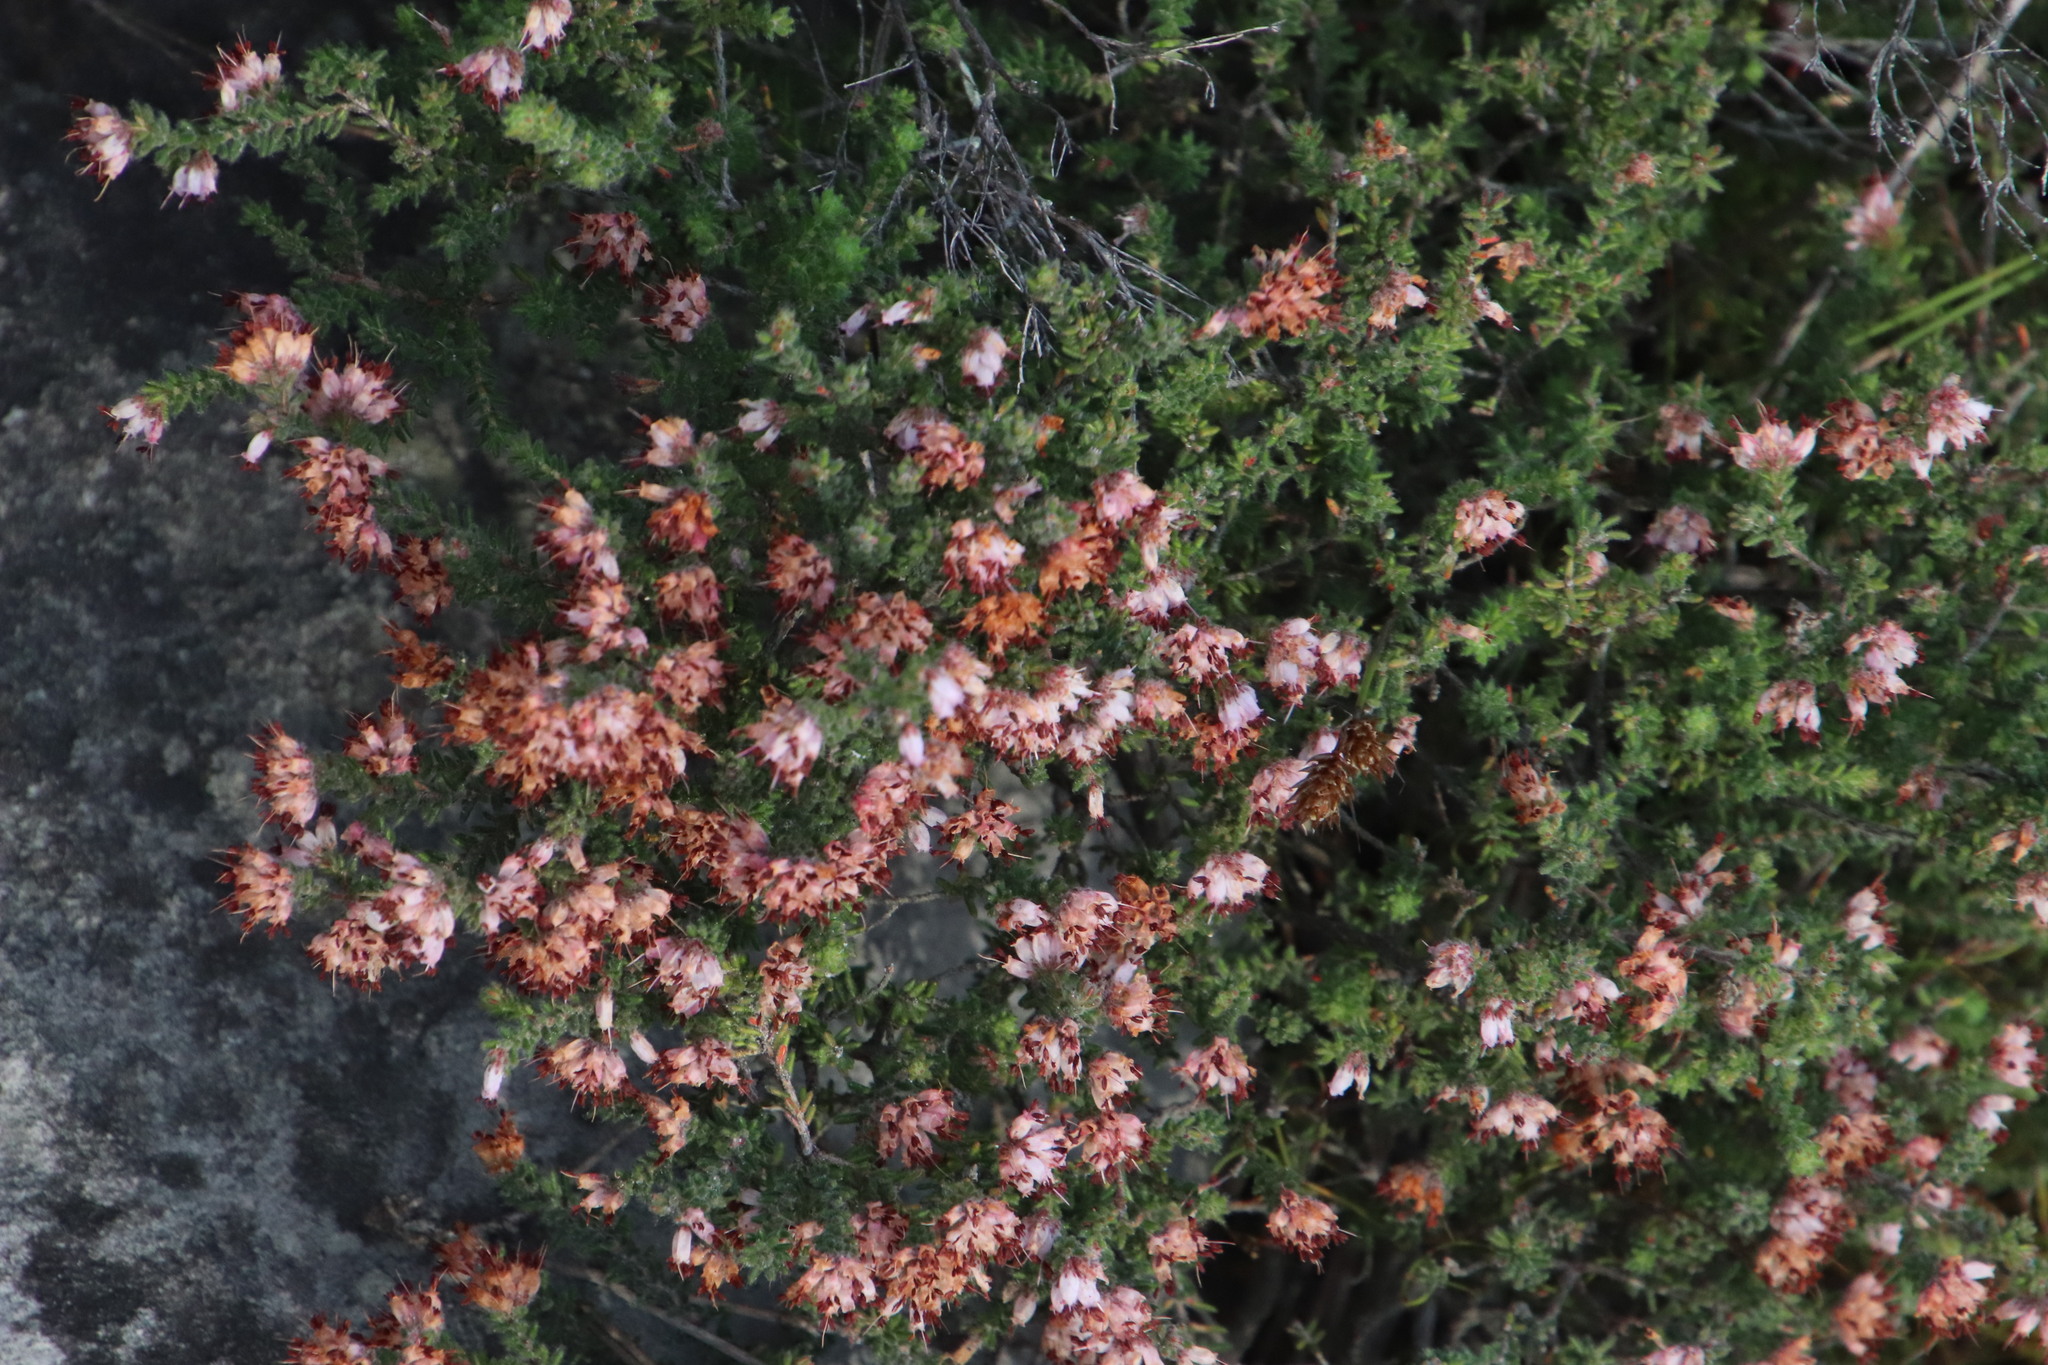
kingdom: Plantae
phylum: Tracheophyta
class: Magnoliopsida
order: Ericales
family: Ericaceae
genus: Erica
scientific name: Erica ericoides
